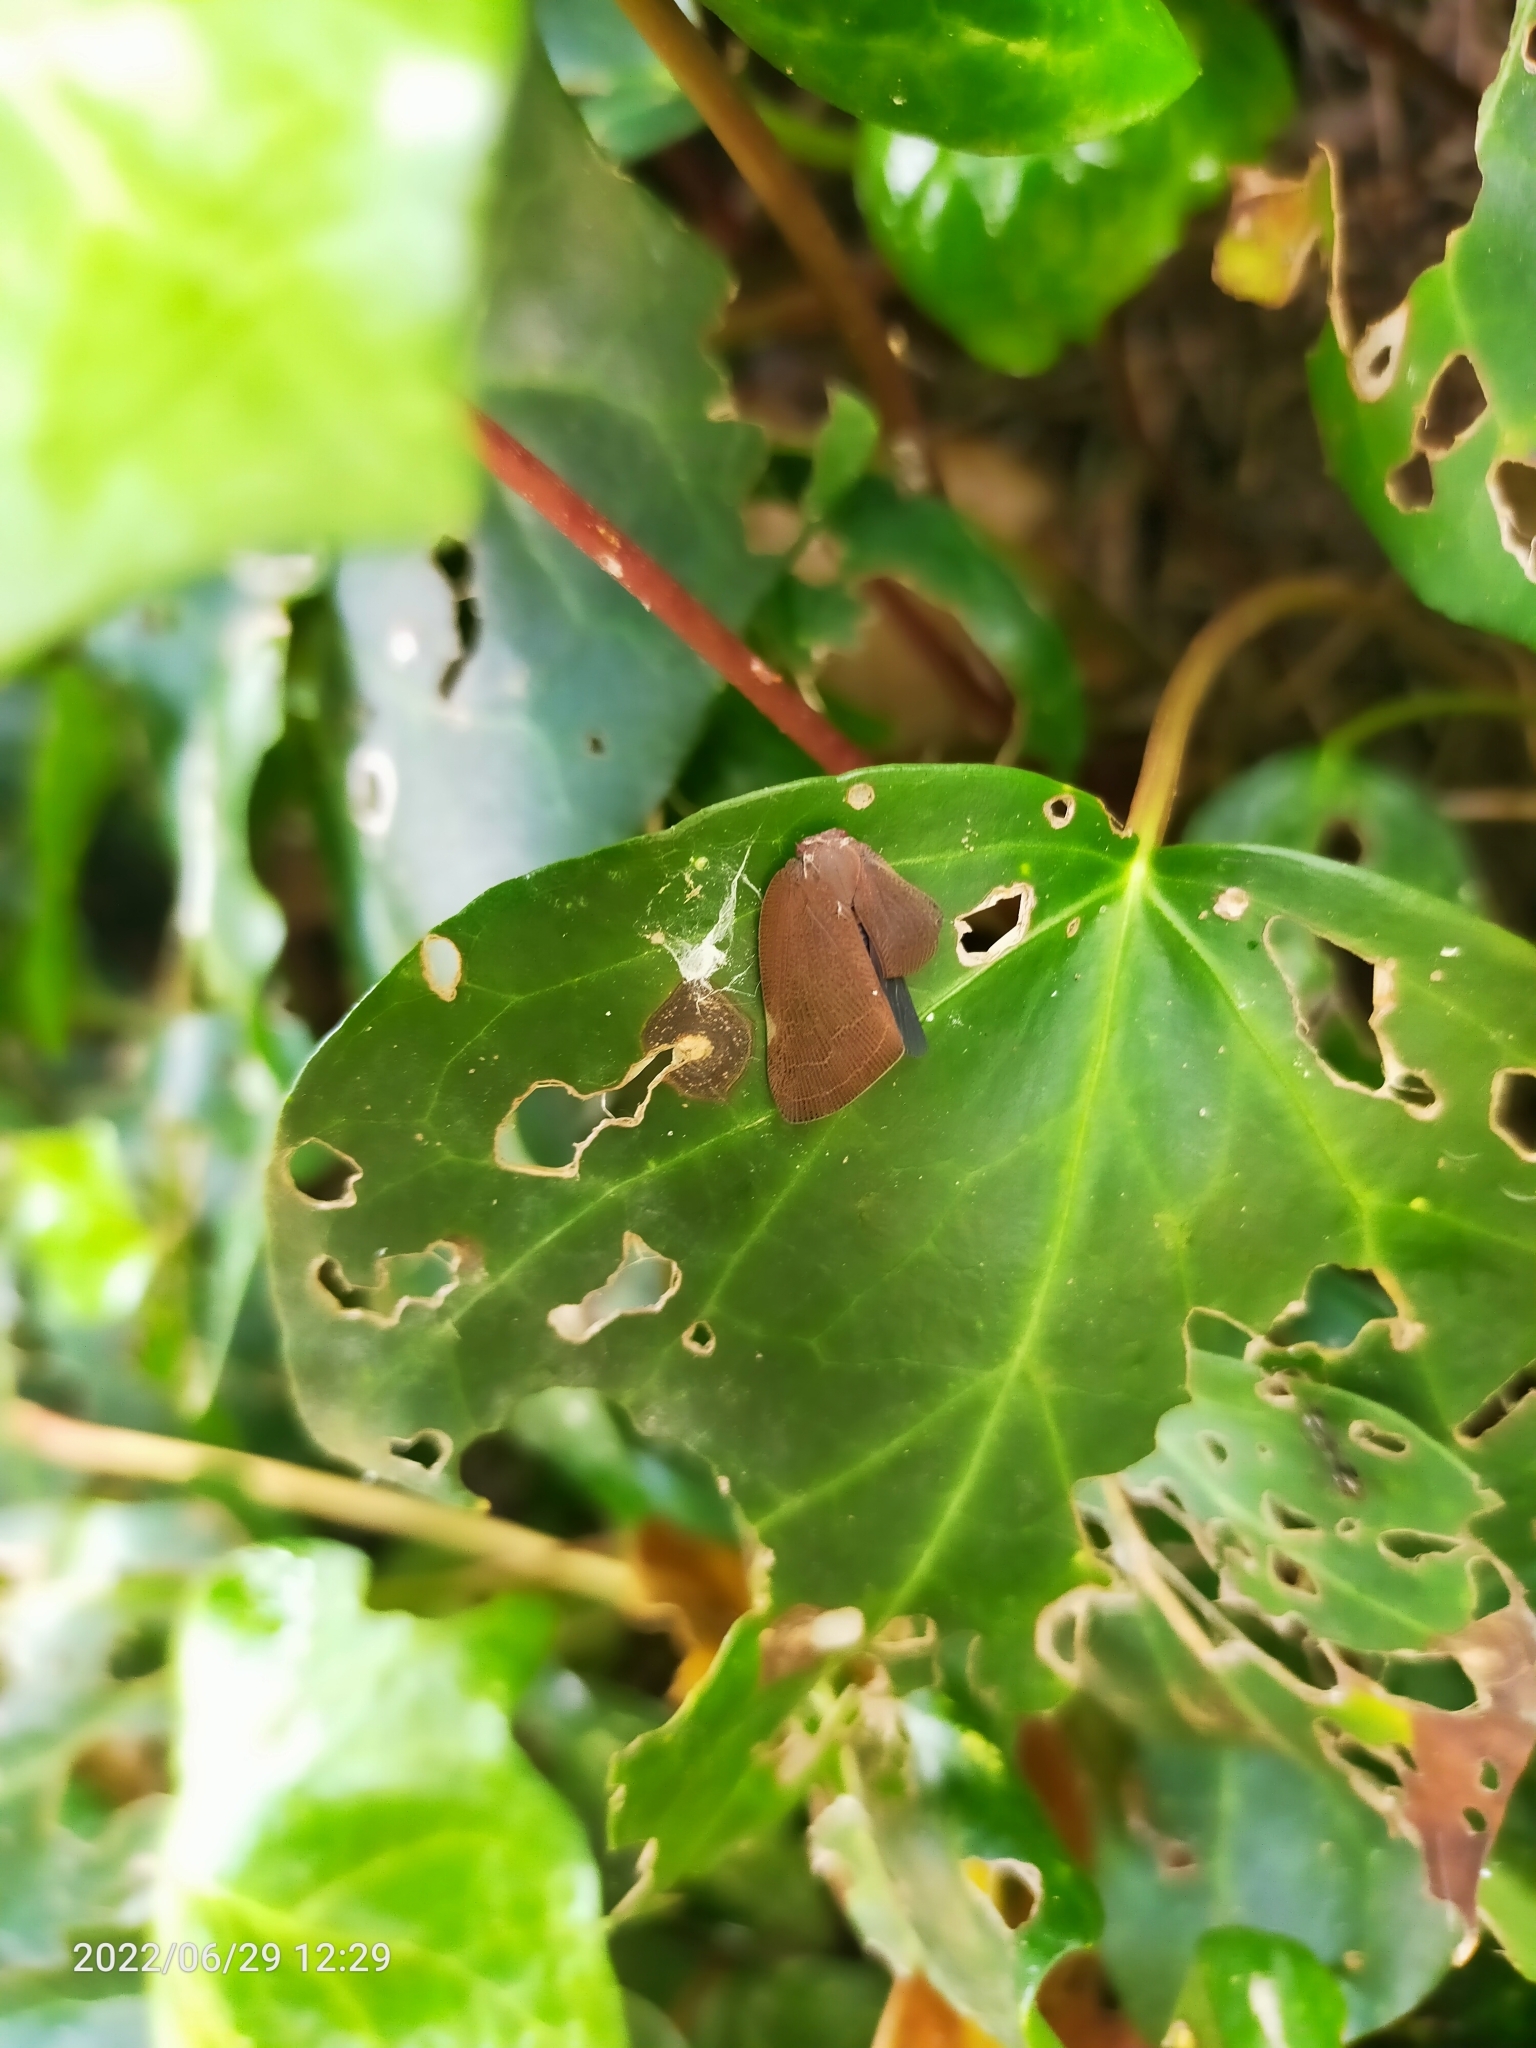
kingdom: Animalia
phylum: Arthropoda
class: Insecta
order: Hemiptera
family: Ricaniidae
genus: Ricania
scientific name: Ricania shantungensis
